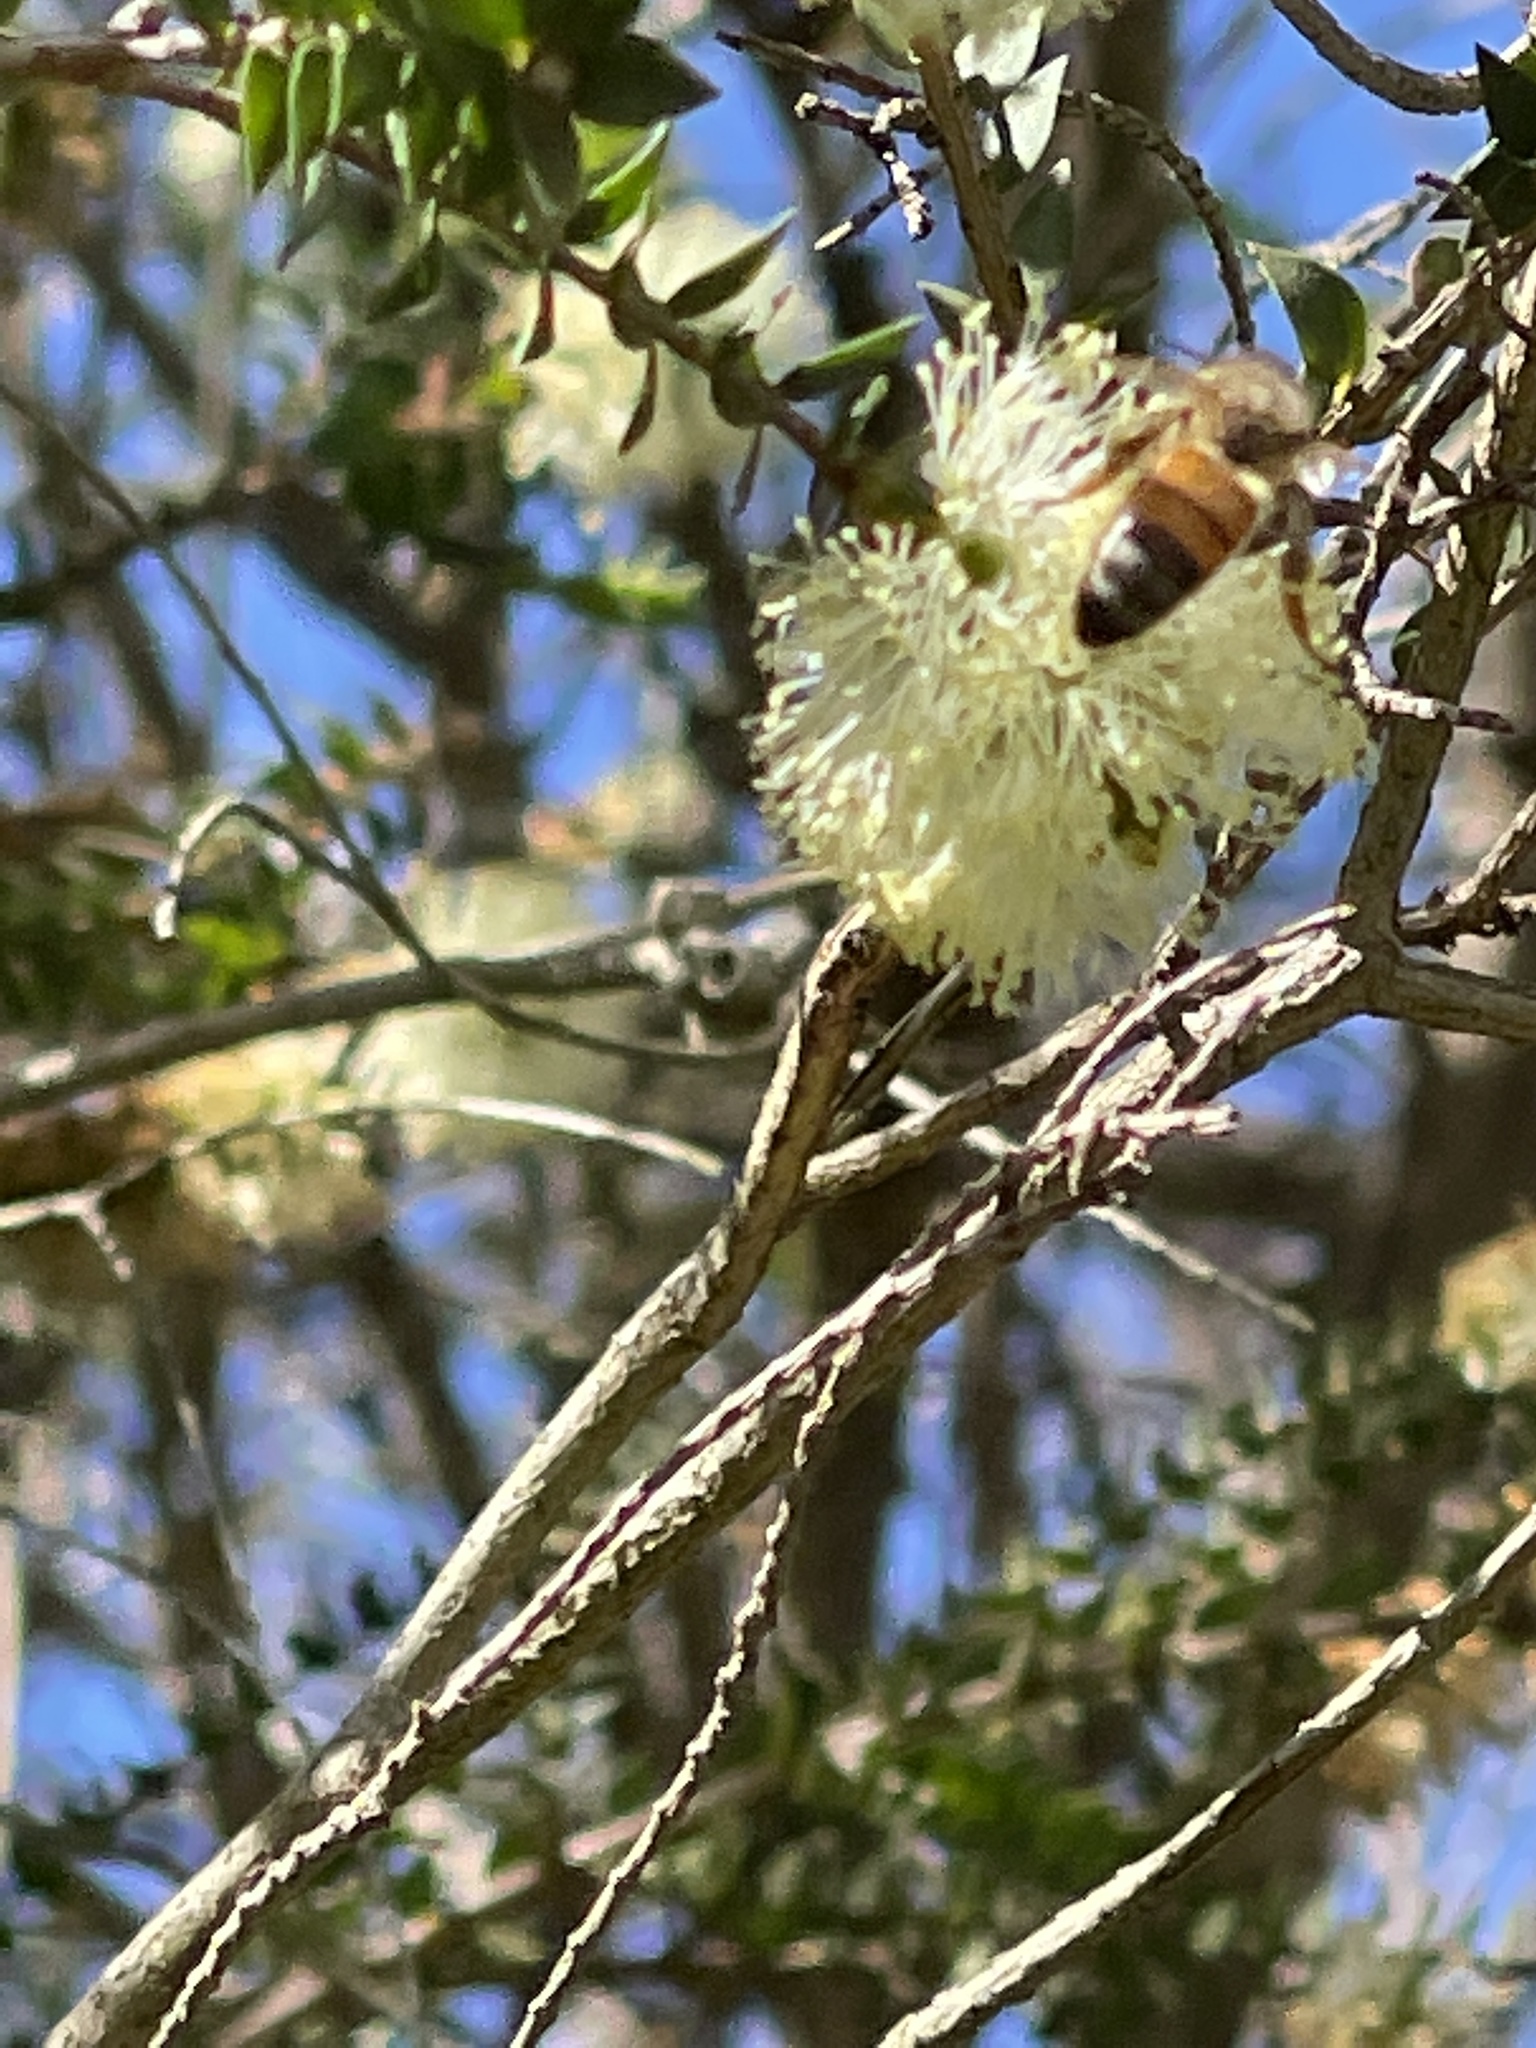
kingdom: Animalia
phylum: Arthropoda
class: Insecta
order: Hymenoptera
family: Apidae
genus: Apis
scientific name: Apis mellifera
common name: Honey bee
